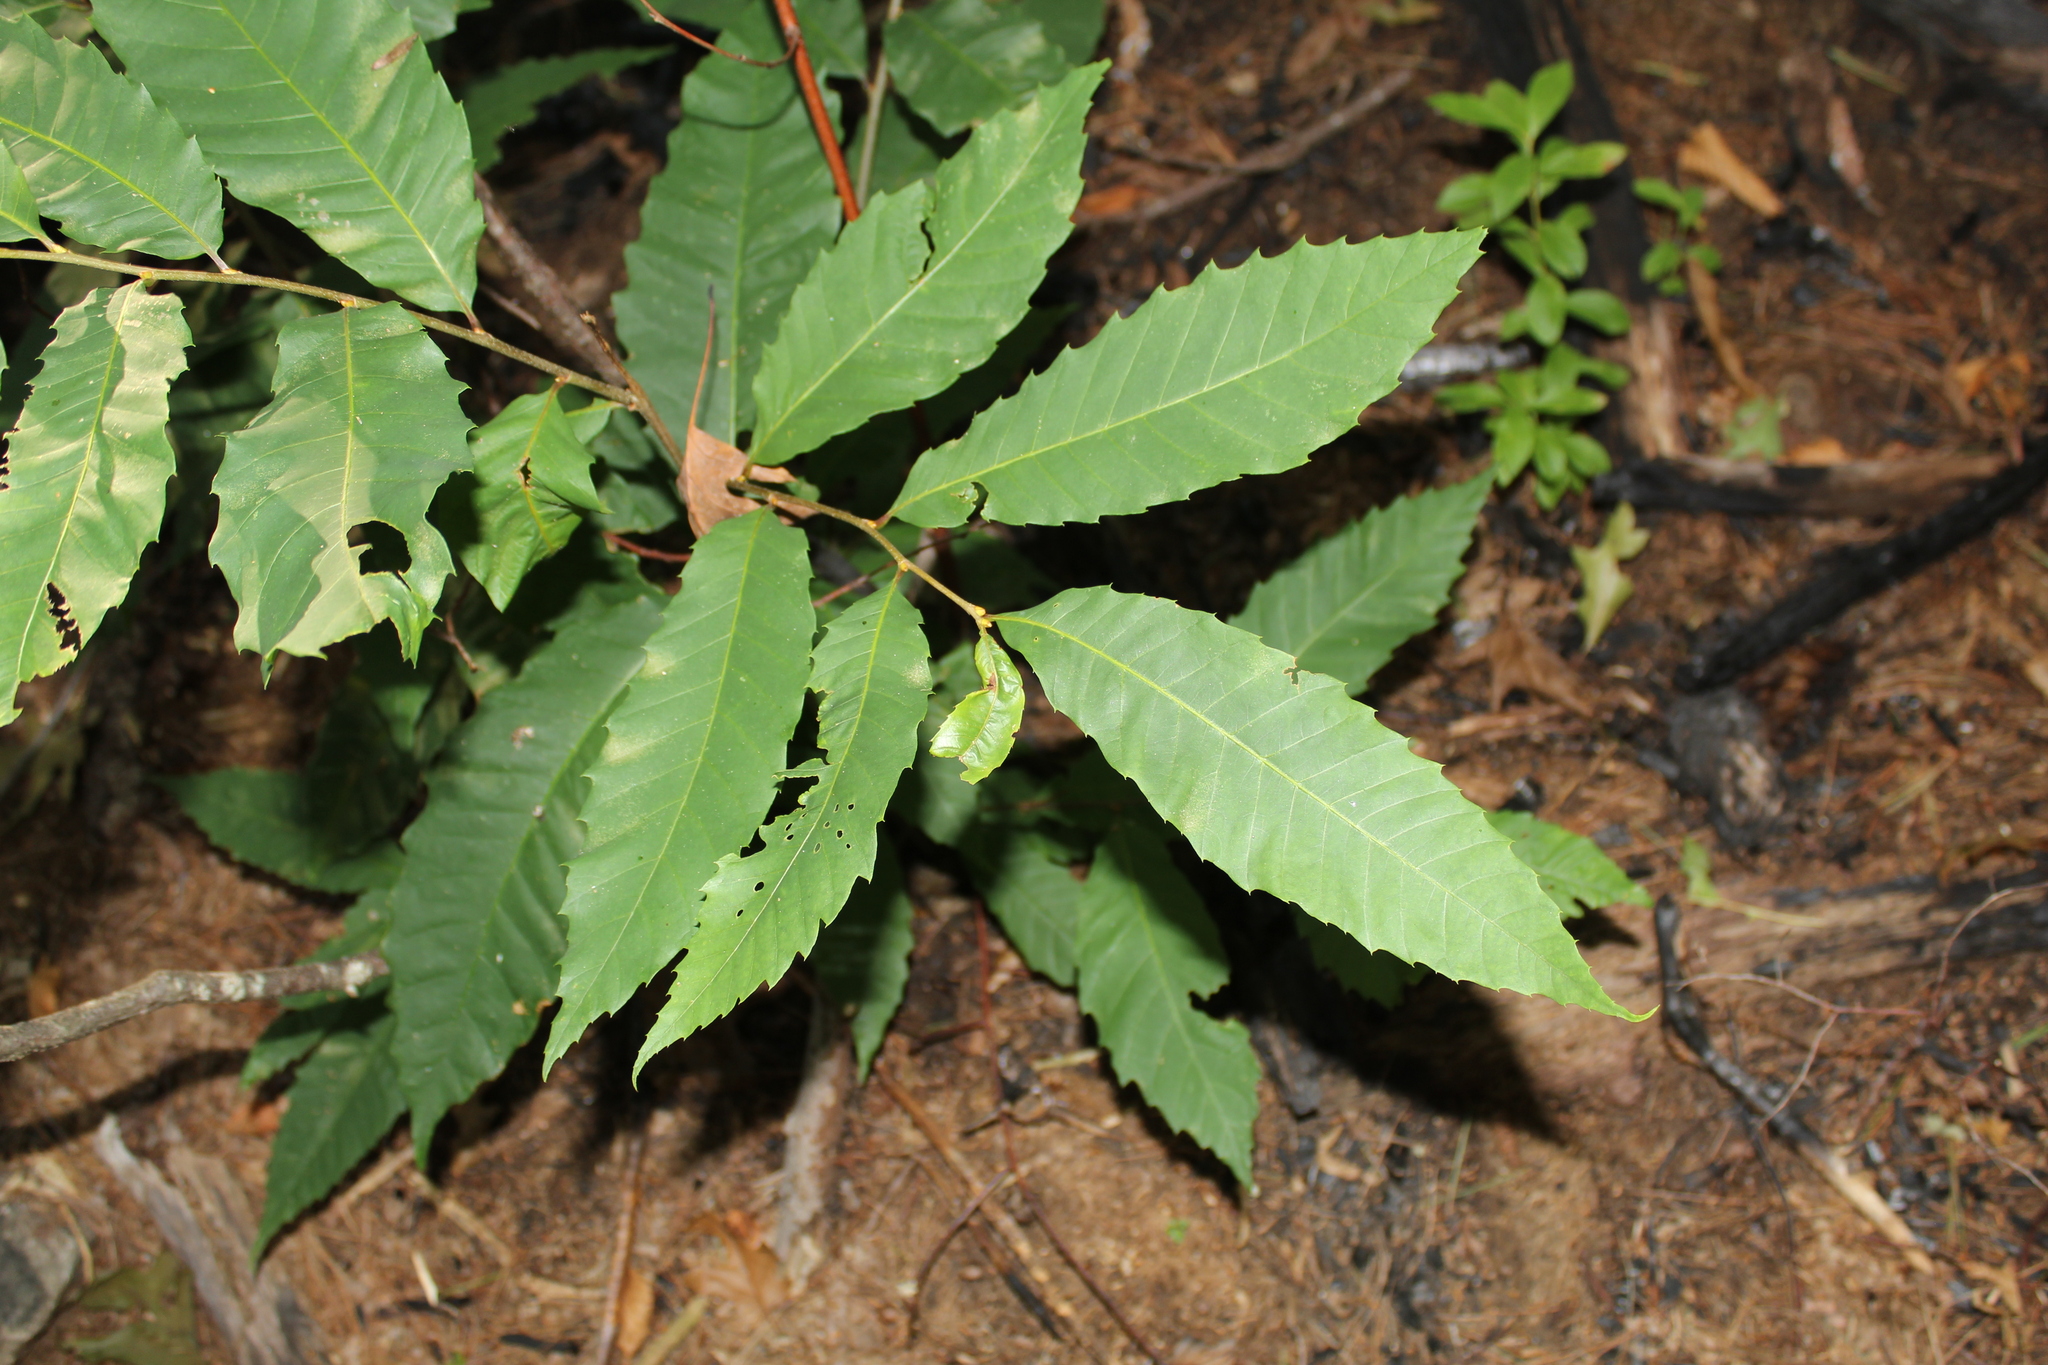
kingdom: Plantae
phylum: Tracheophyta
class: Magnoliopsida
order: Fagales
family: Fagaceae
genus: Castanea
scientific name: Castanea dentata
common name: American chestnut
